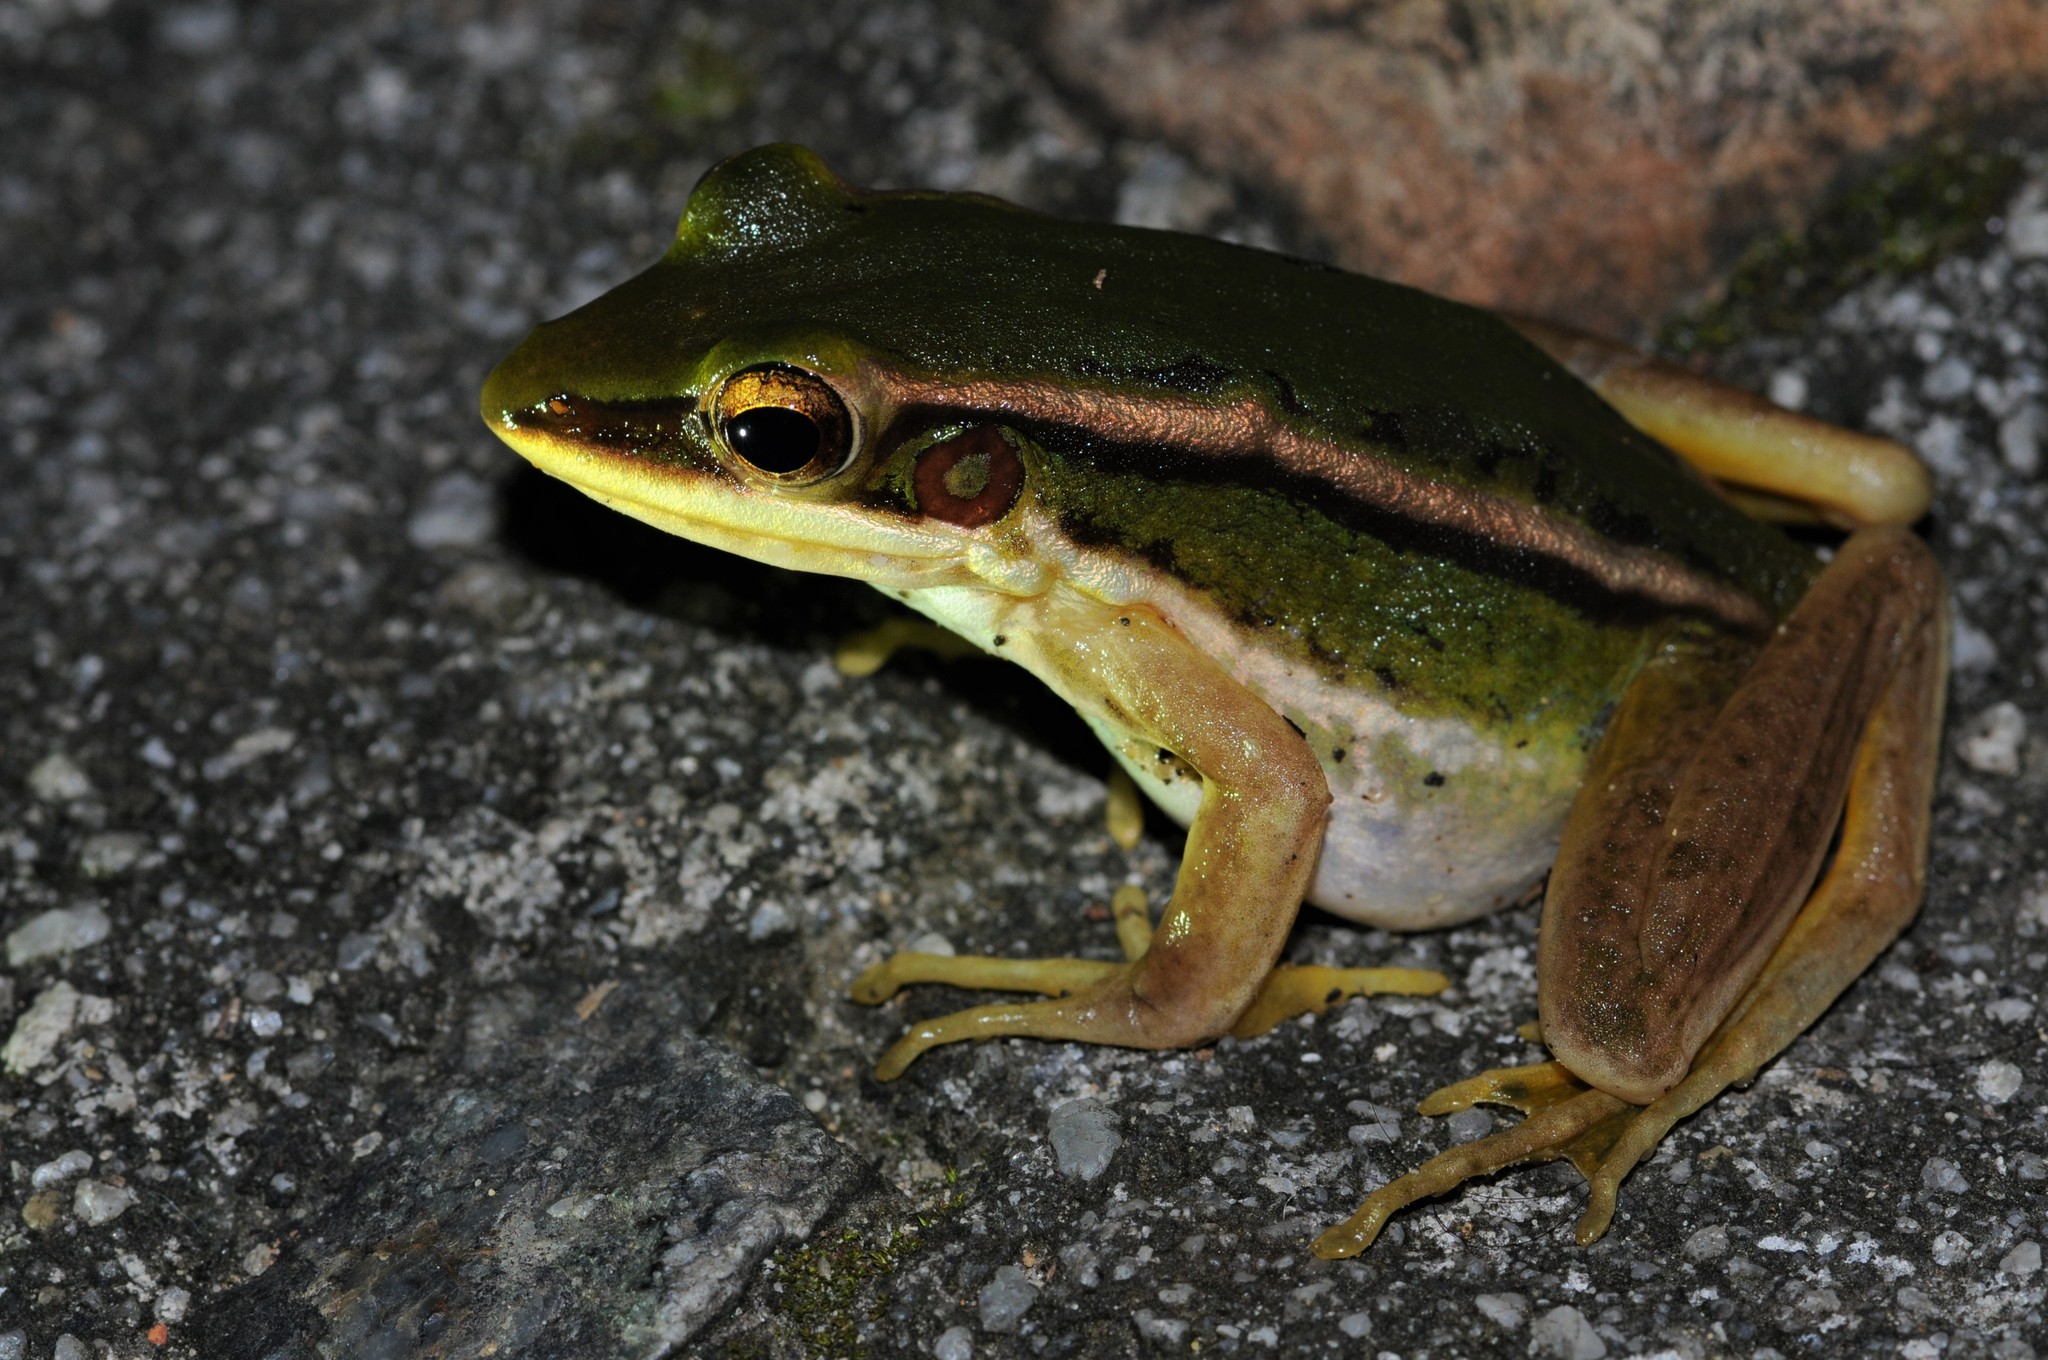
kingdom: Animalia
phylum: Chordata
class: Amphibia
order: Anura
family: Ranidae
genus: Hylarana
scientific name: Hylarana erythraea
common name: Common green frog/green paddy frog/leaf frog
